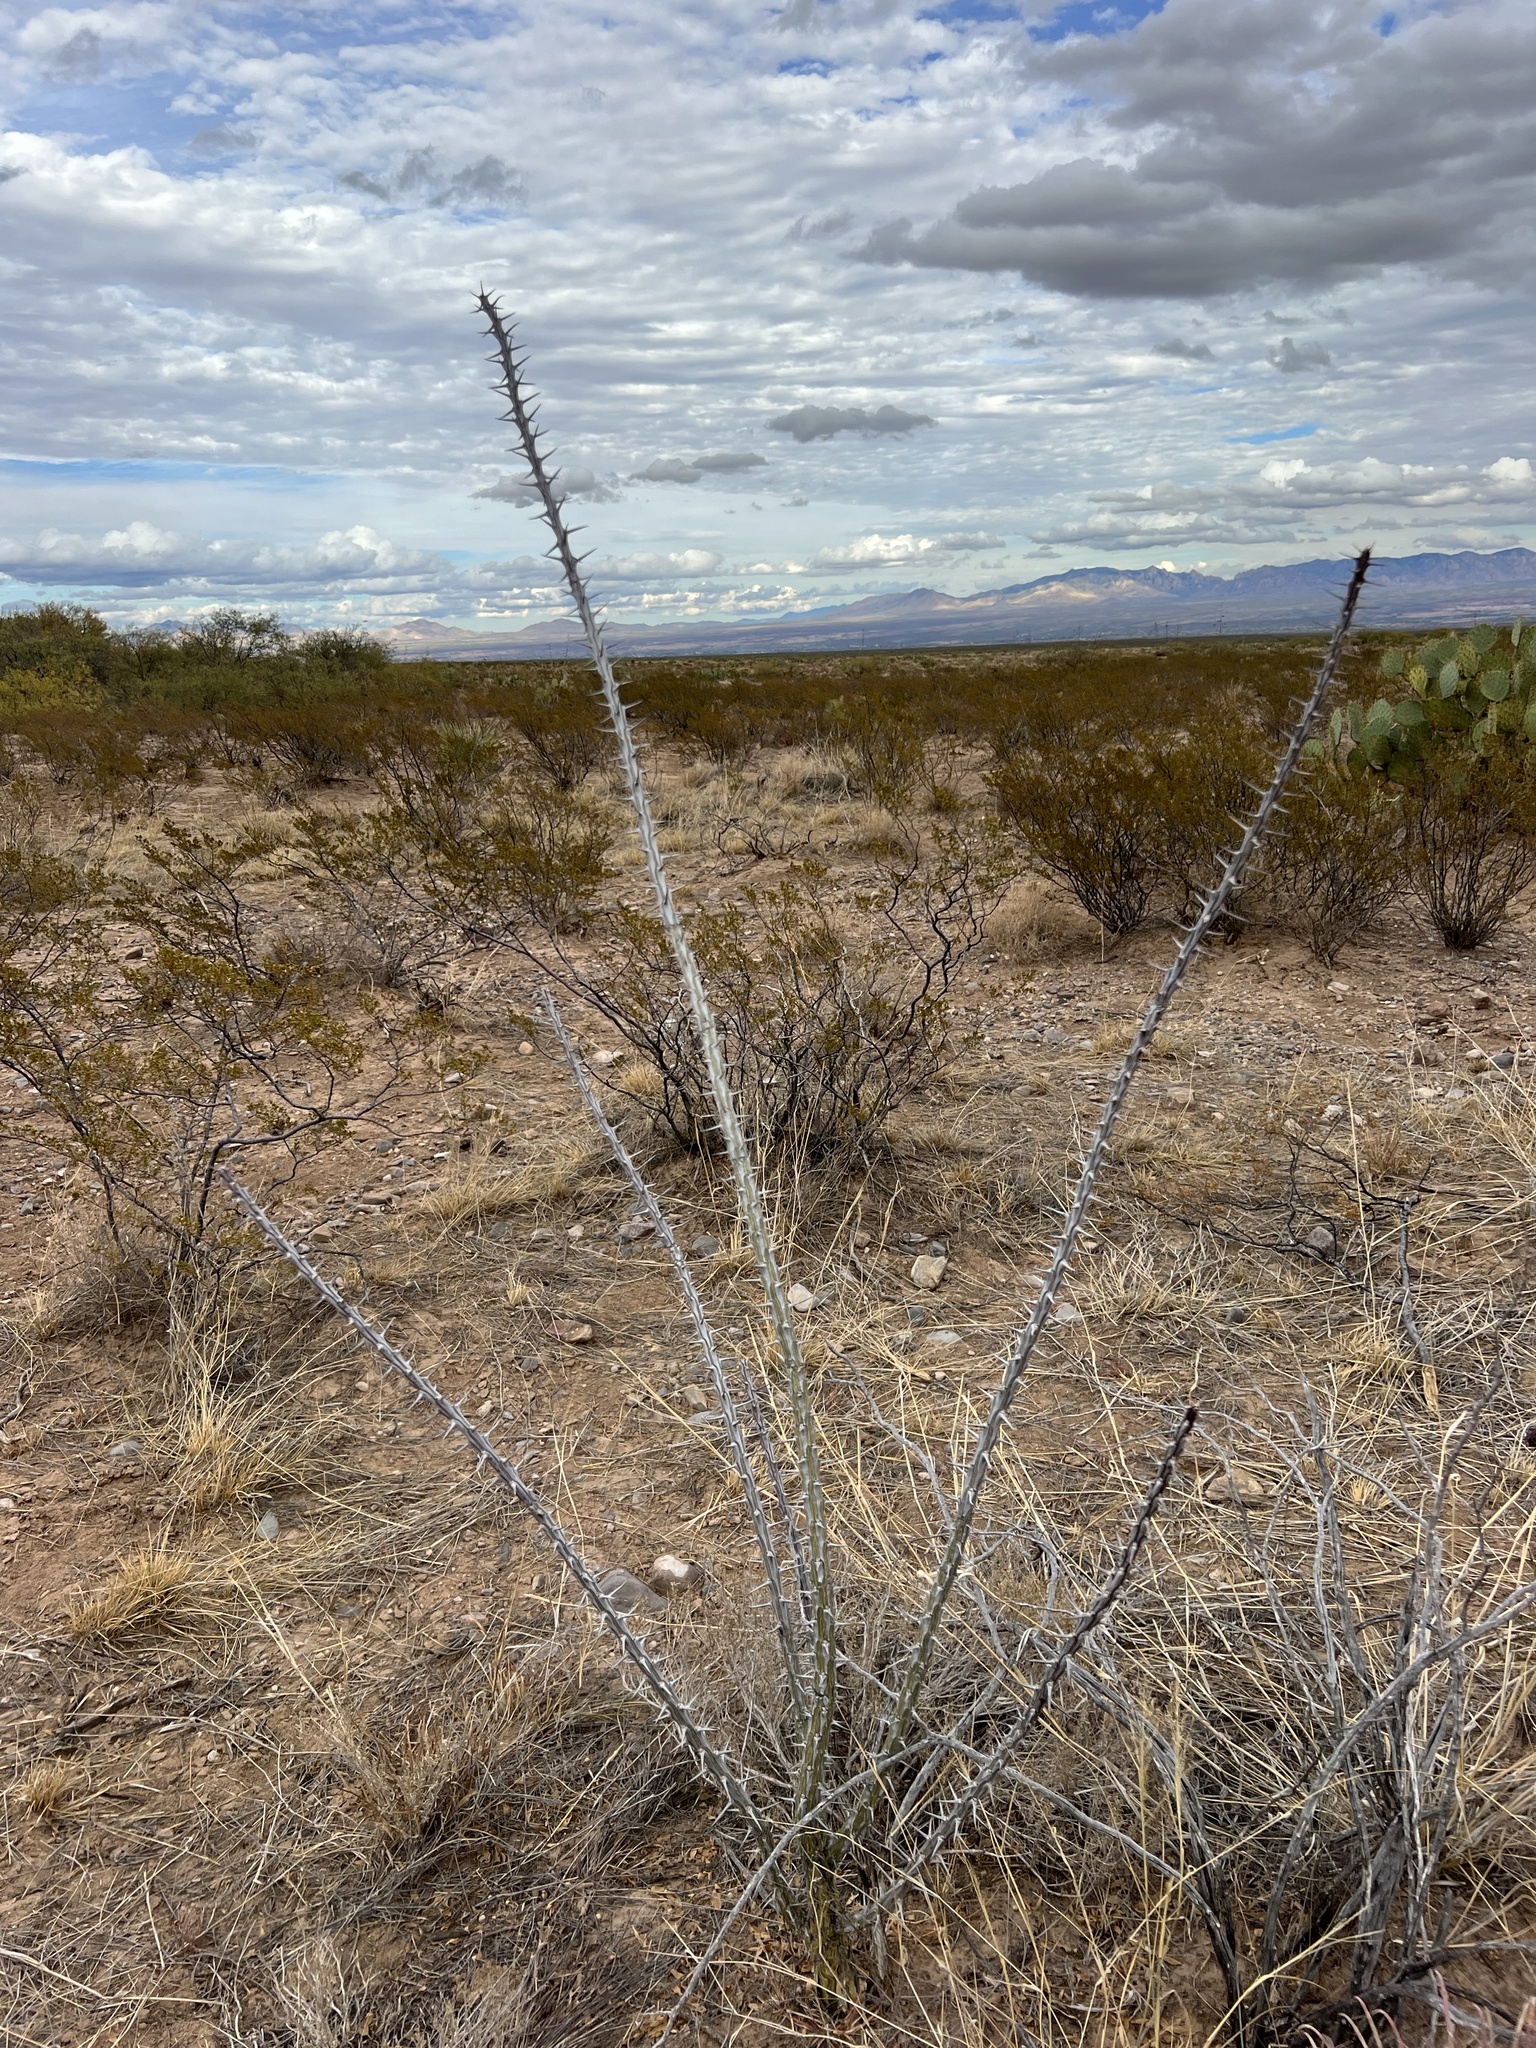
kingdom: Plantae
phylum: Tracheophyta
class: Magnoliopsida
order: Ericales
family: Fouquieriaceae
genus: Fouquieria
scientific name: Fouquieria splendens
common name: Vine-cactus
